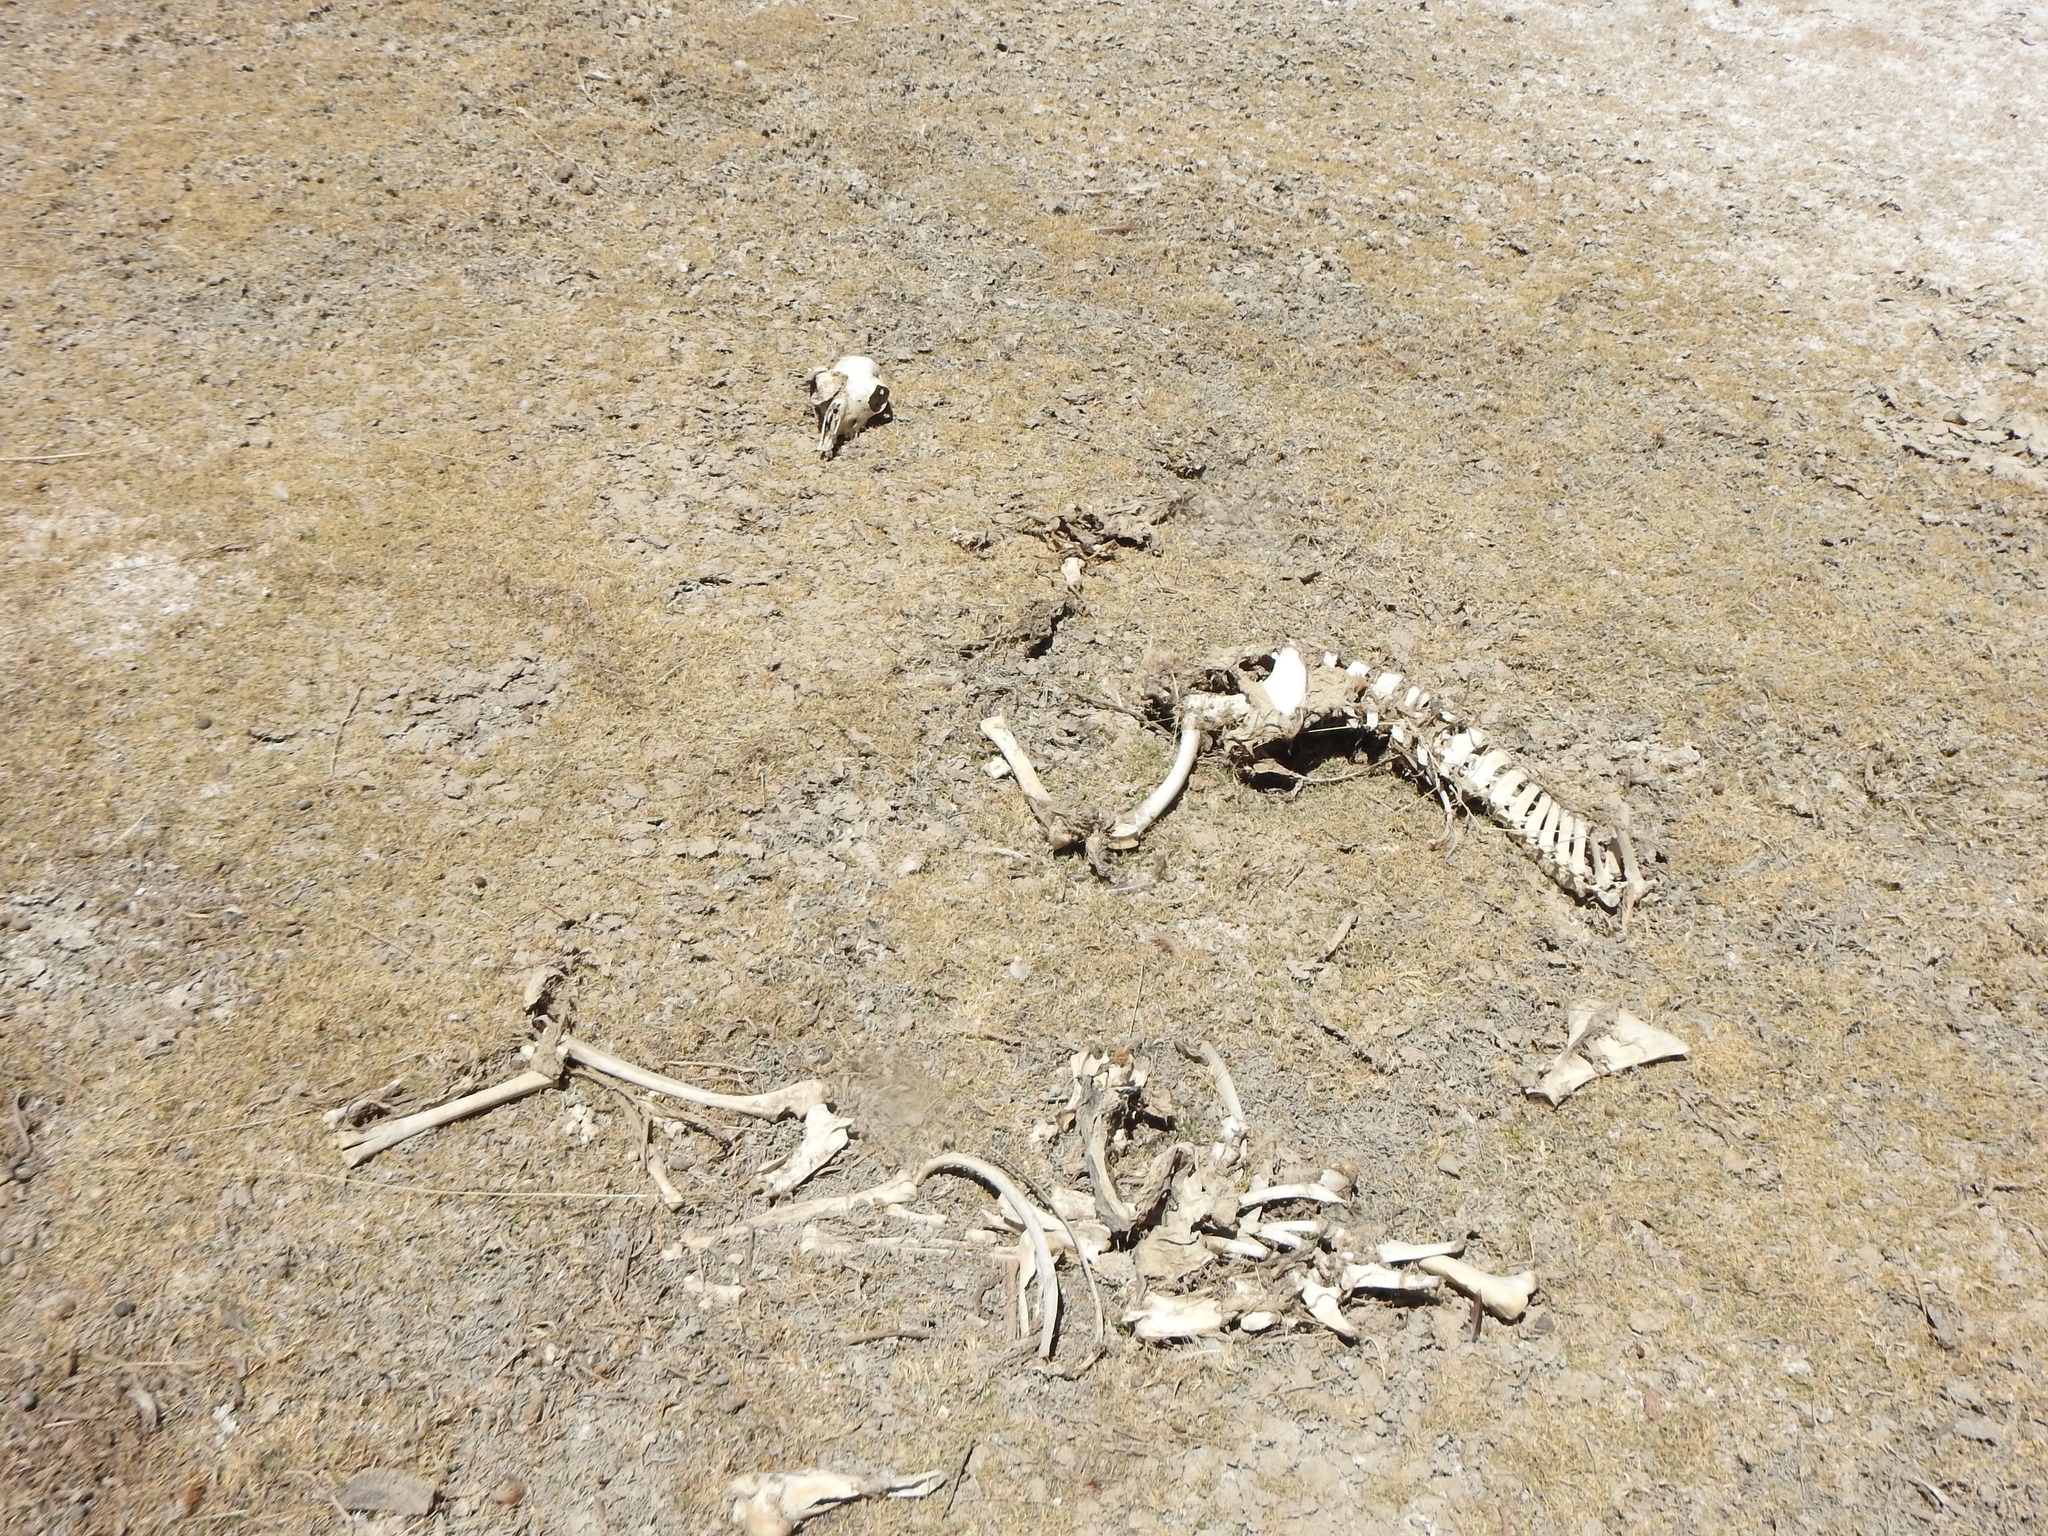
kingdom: Animalia
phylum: Chordata
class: Mammalia
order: Artiodactyla
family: Camelidae
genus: Vicugna
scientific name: Vicugna vicugna
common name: Vicugna
